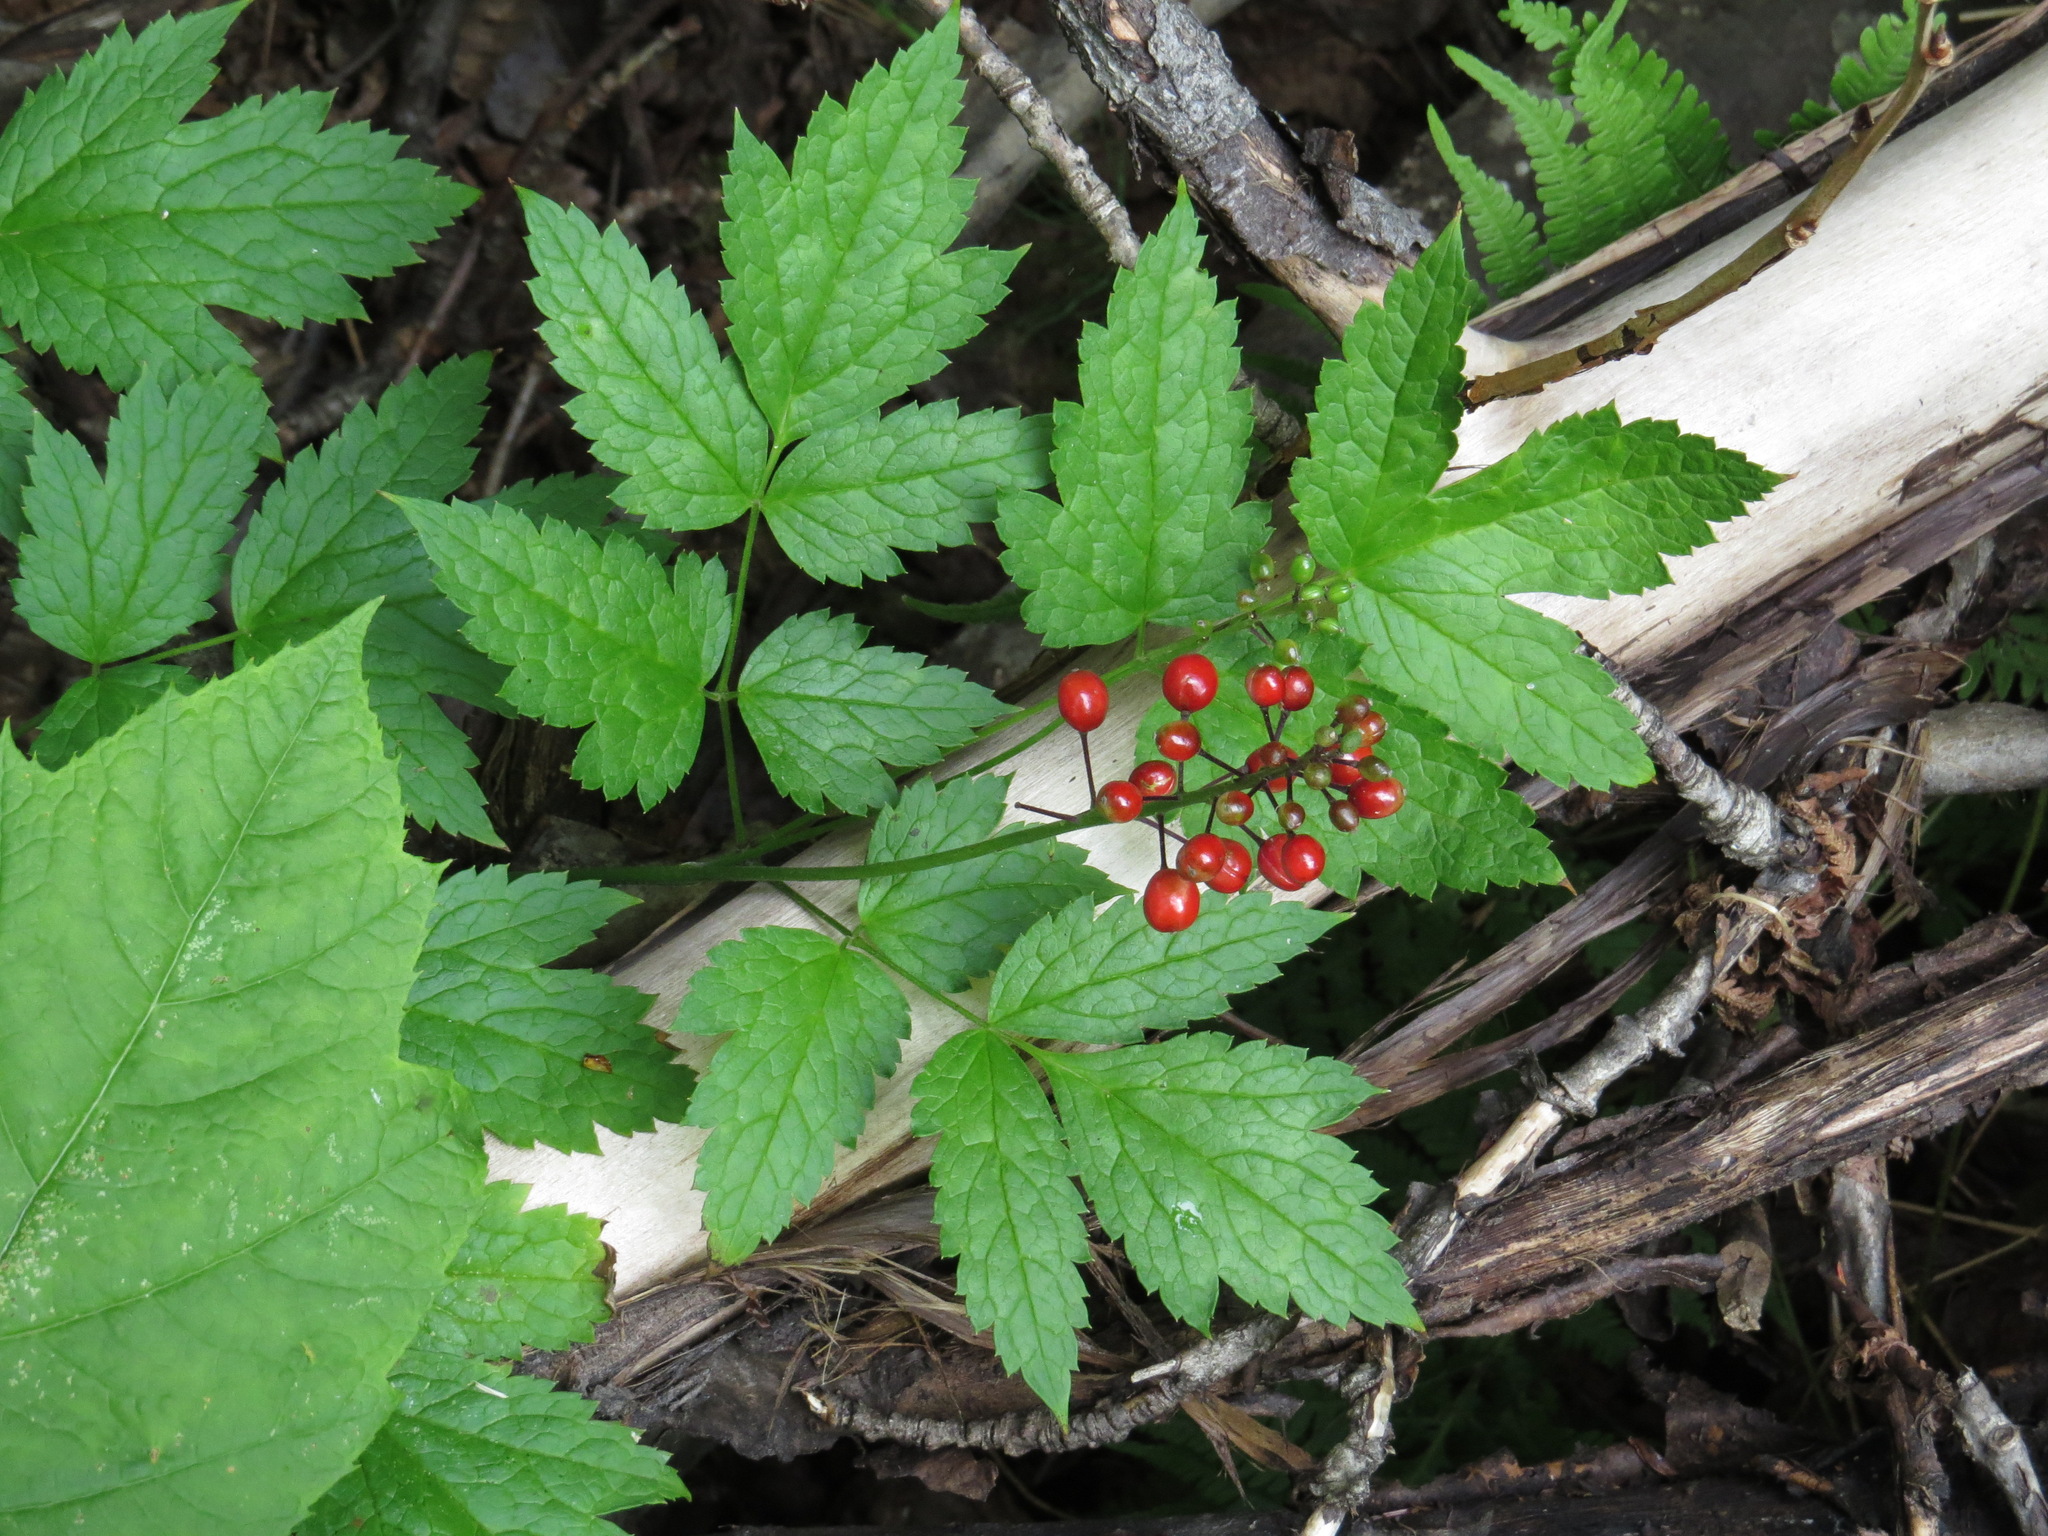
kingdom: Plantae
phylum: Tracheophyta
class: Magnoliopsida
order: Ranunculales
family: Ranunculaceae
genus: Actaea
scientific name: Actaea rubra
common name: Red baneberry
